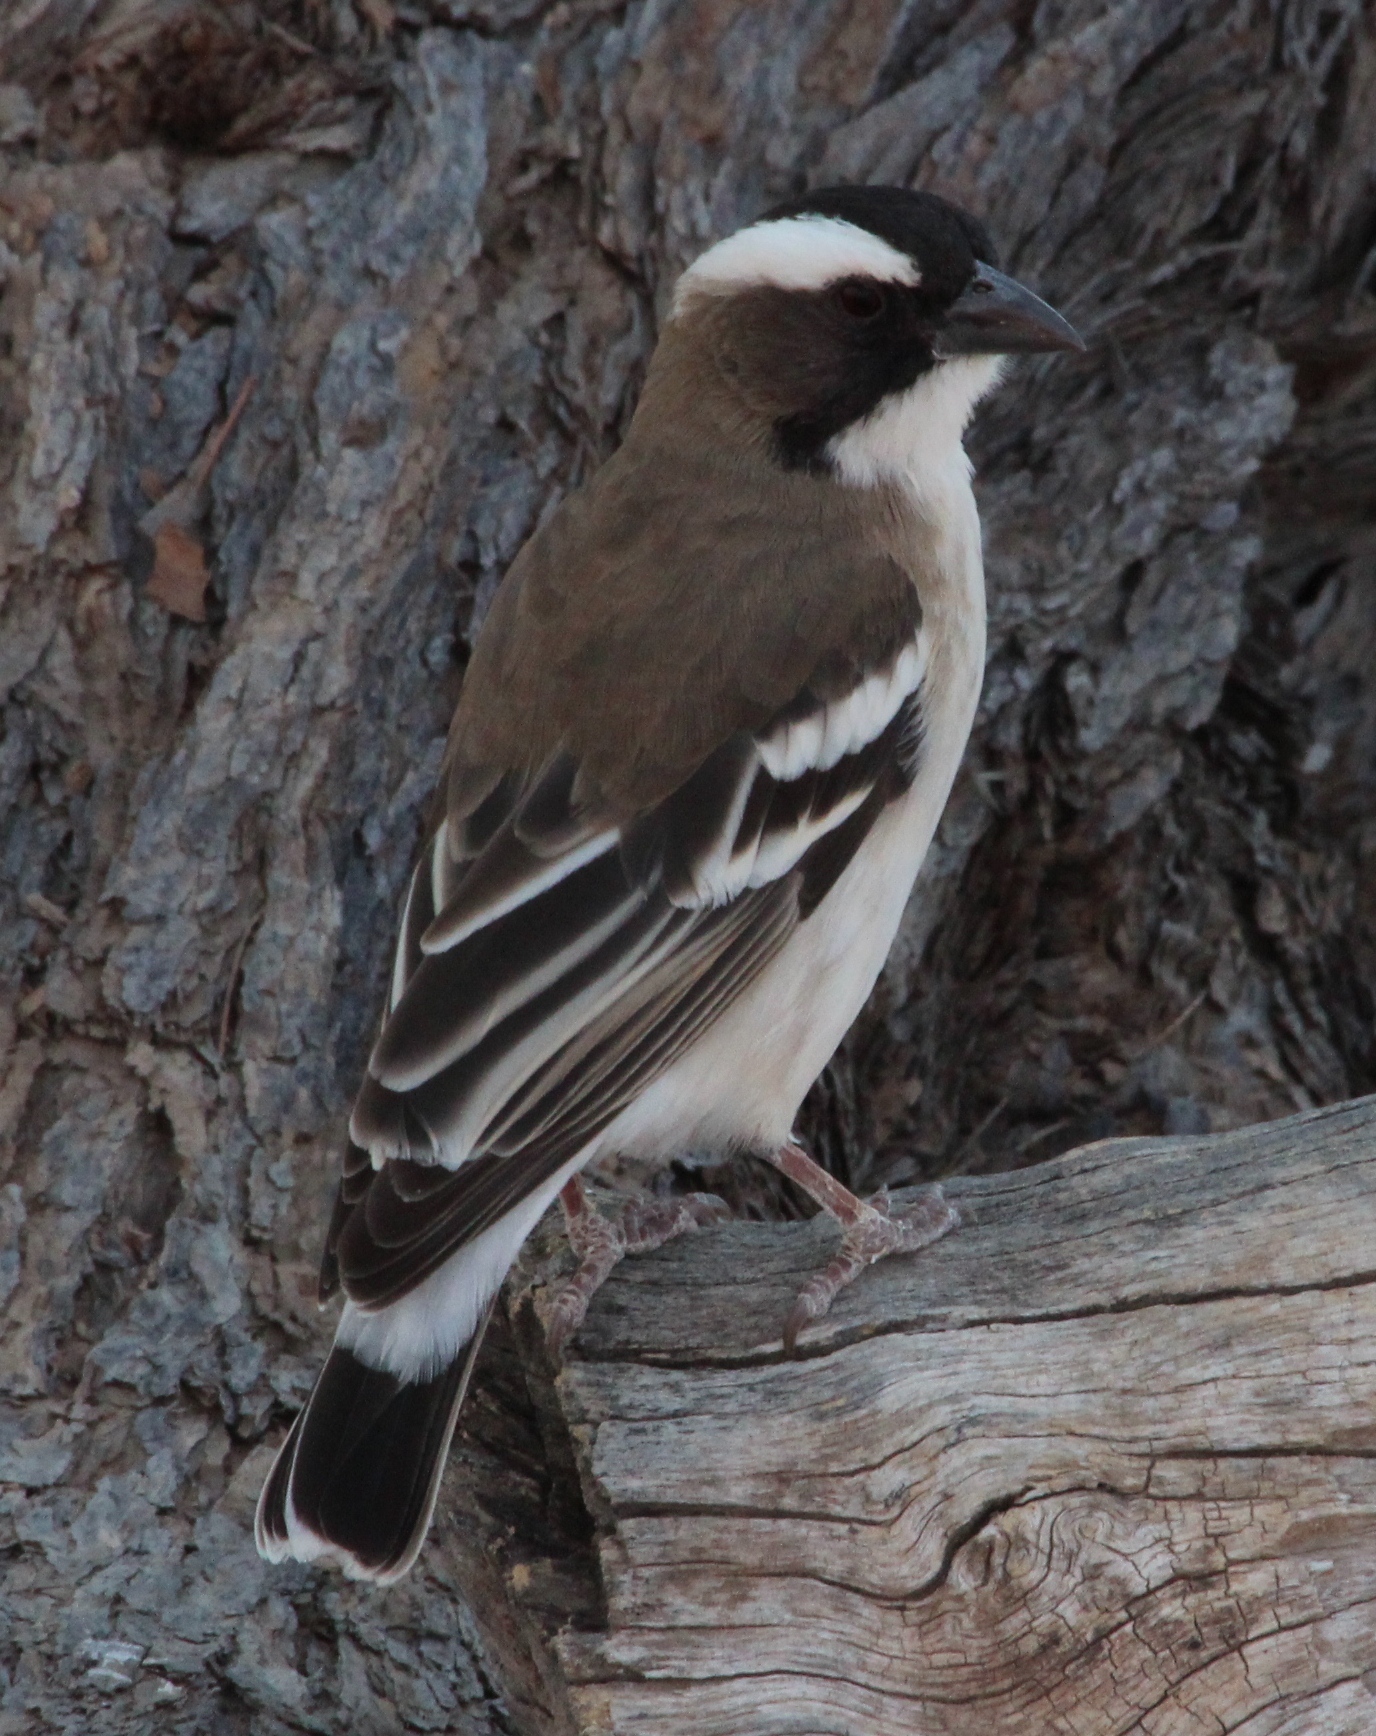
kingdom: Animalia
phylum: Chordata
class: Aves
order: Passeriformes
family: Passeridae
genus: Plocepasser
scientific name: Plocepasser mahali
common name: White-browed sparrow-weaver
